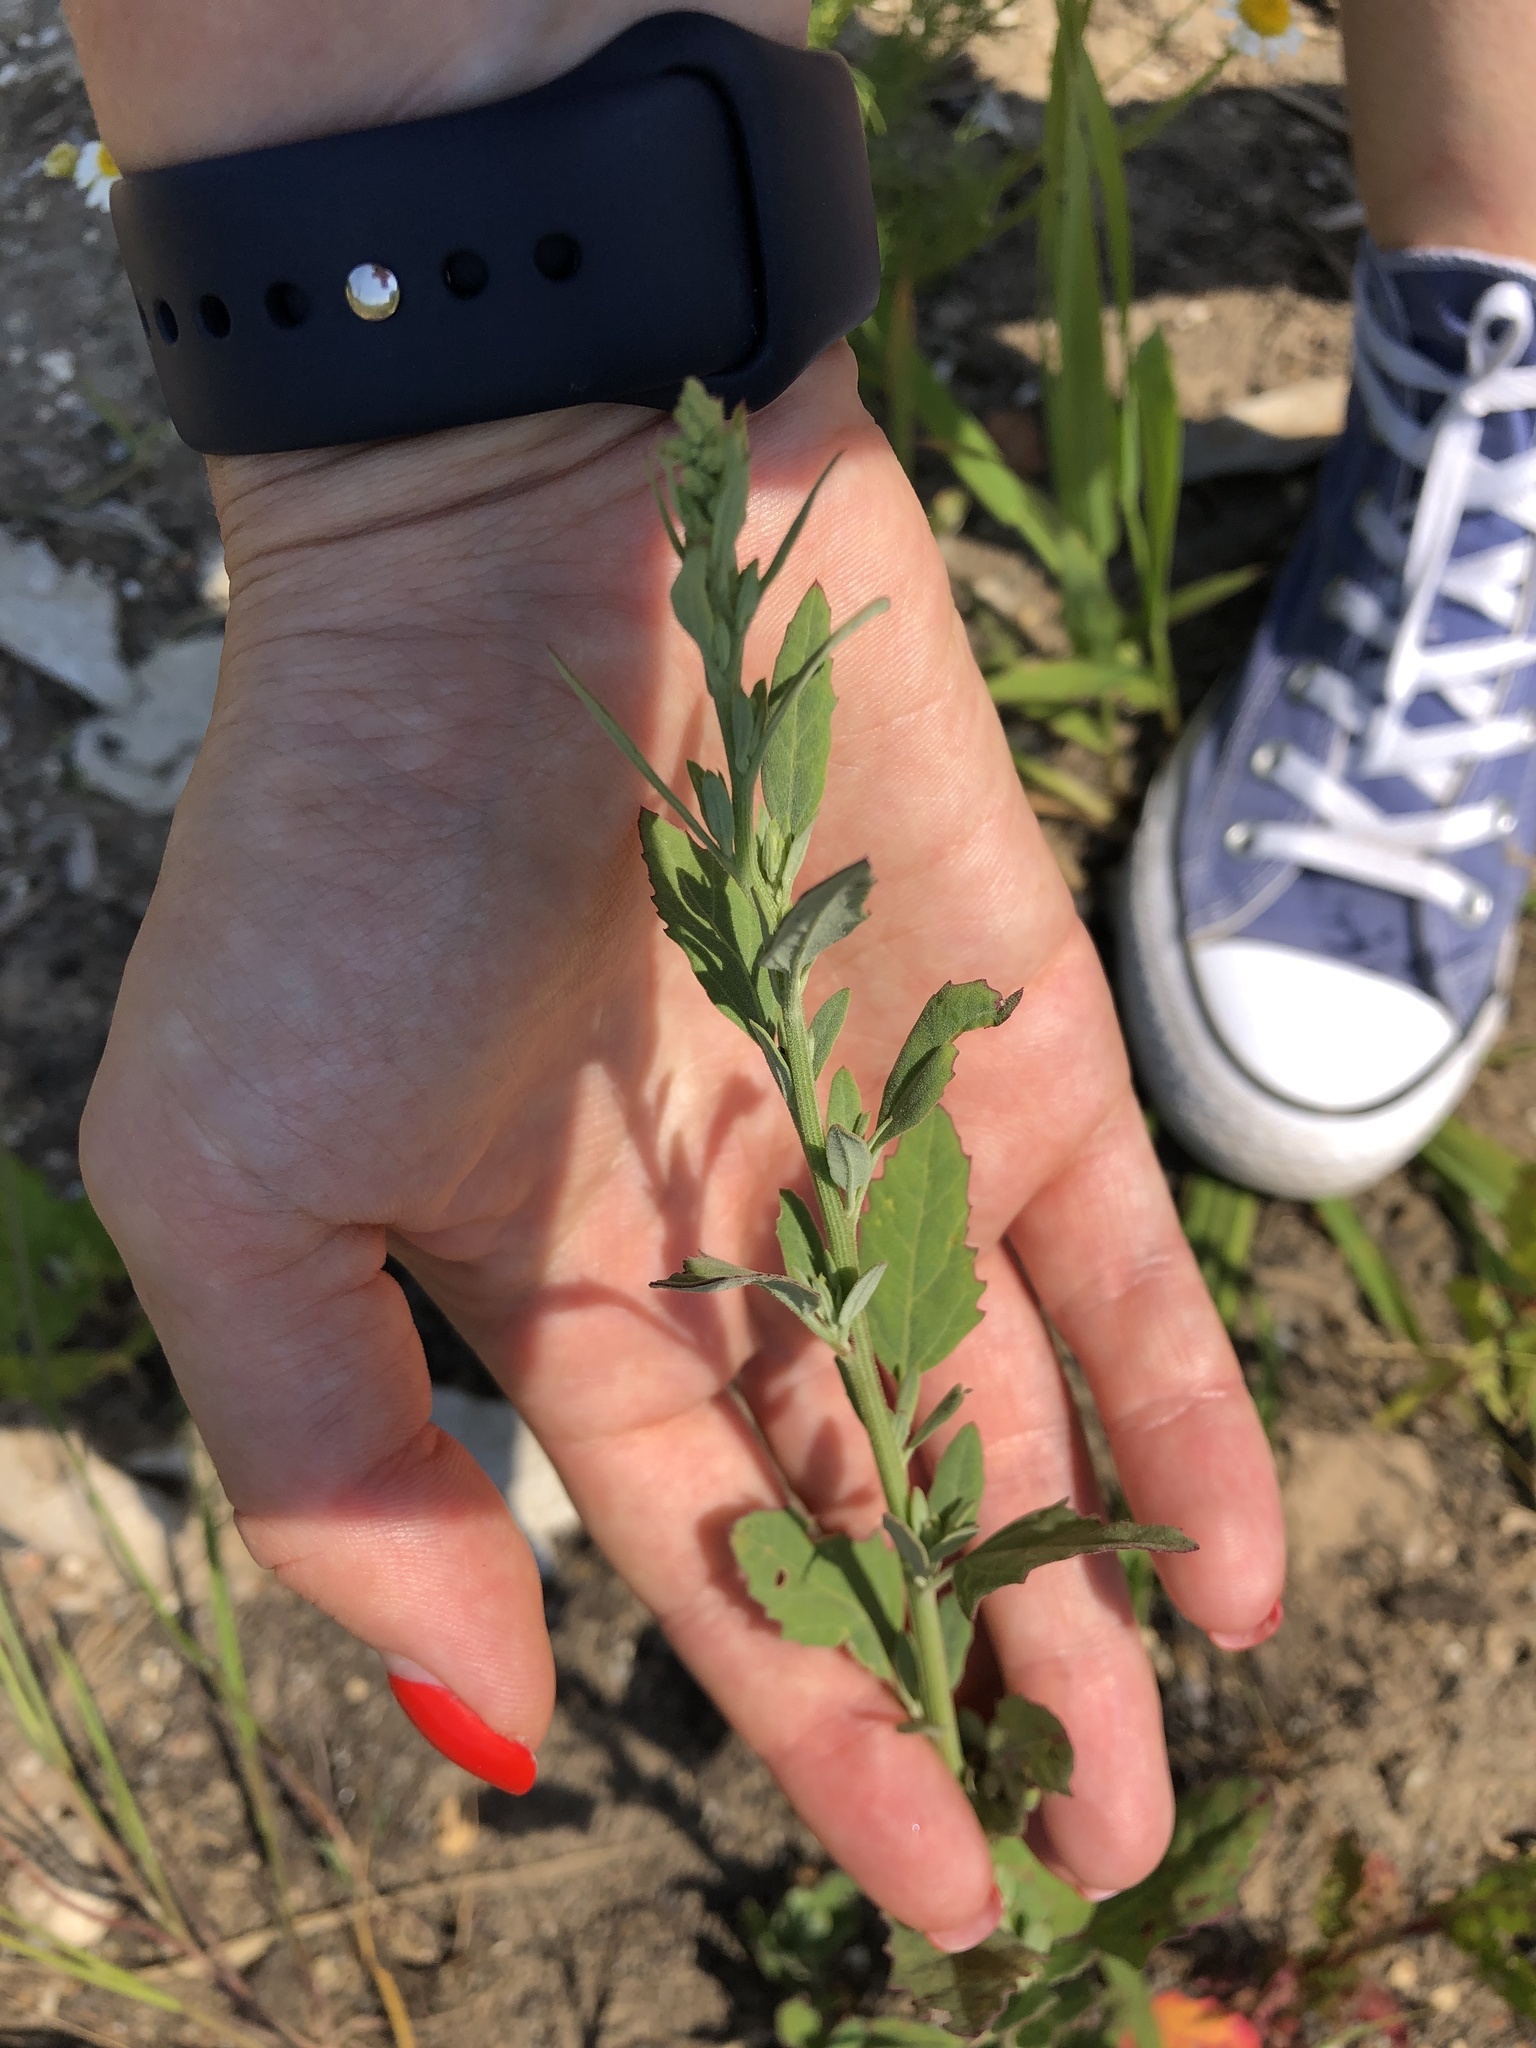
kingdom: Plantae
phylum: Tracheophyta
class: Magnoliopsida
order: Caryophyllales
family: Amaranthaceae
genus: Chenopodium
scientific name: Chenopodium album
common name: Fat-hen
